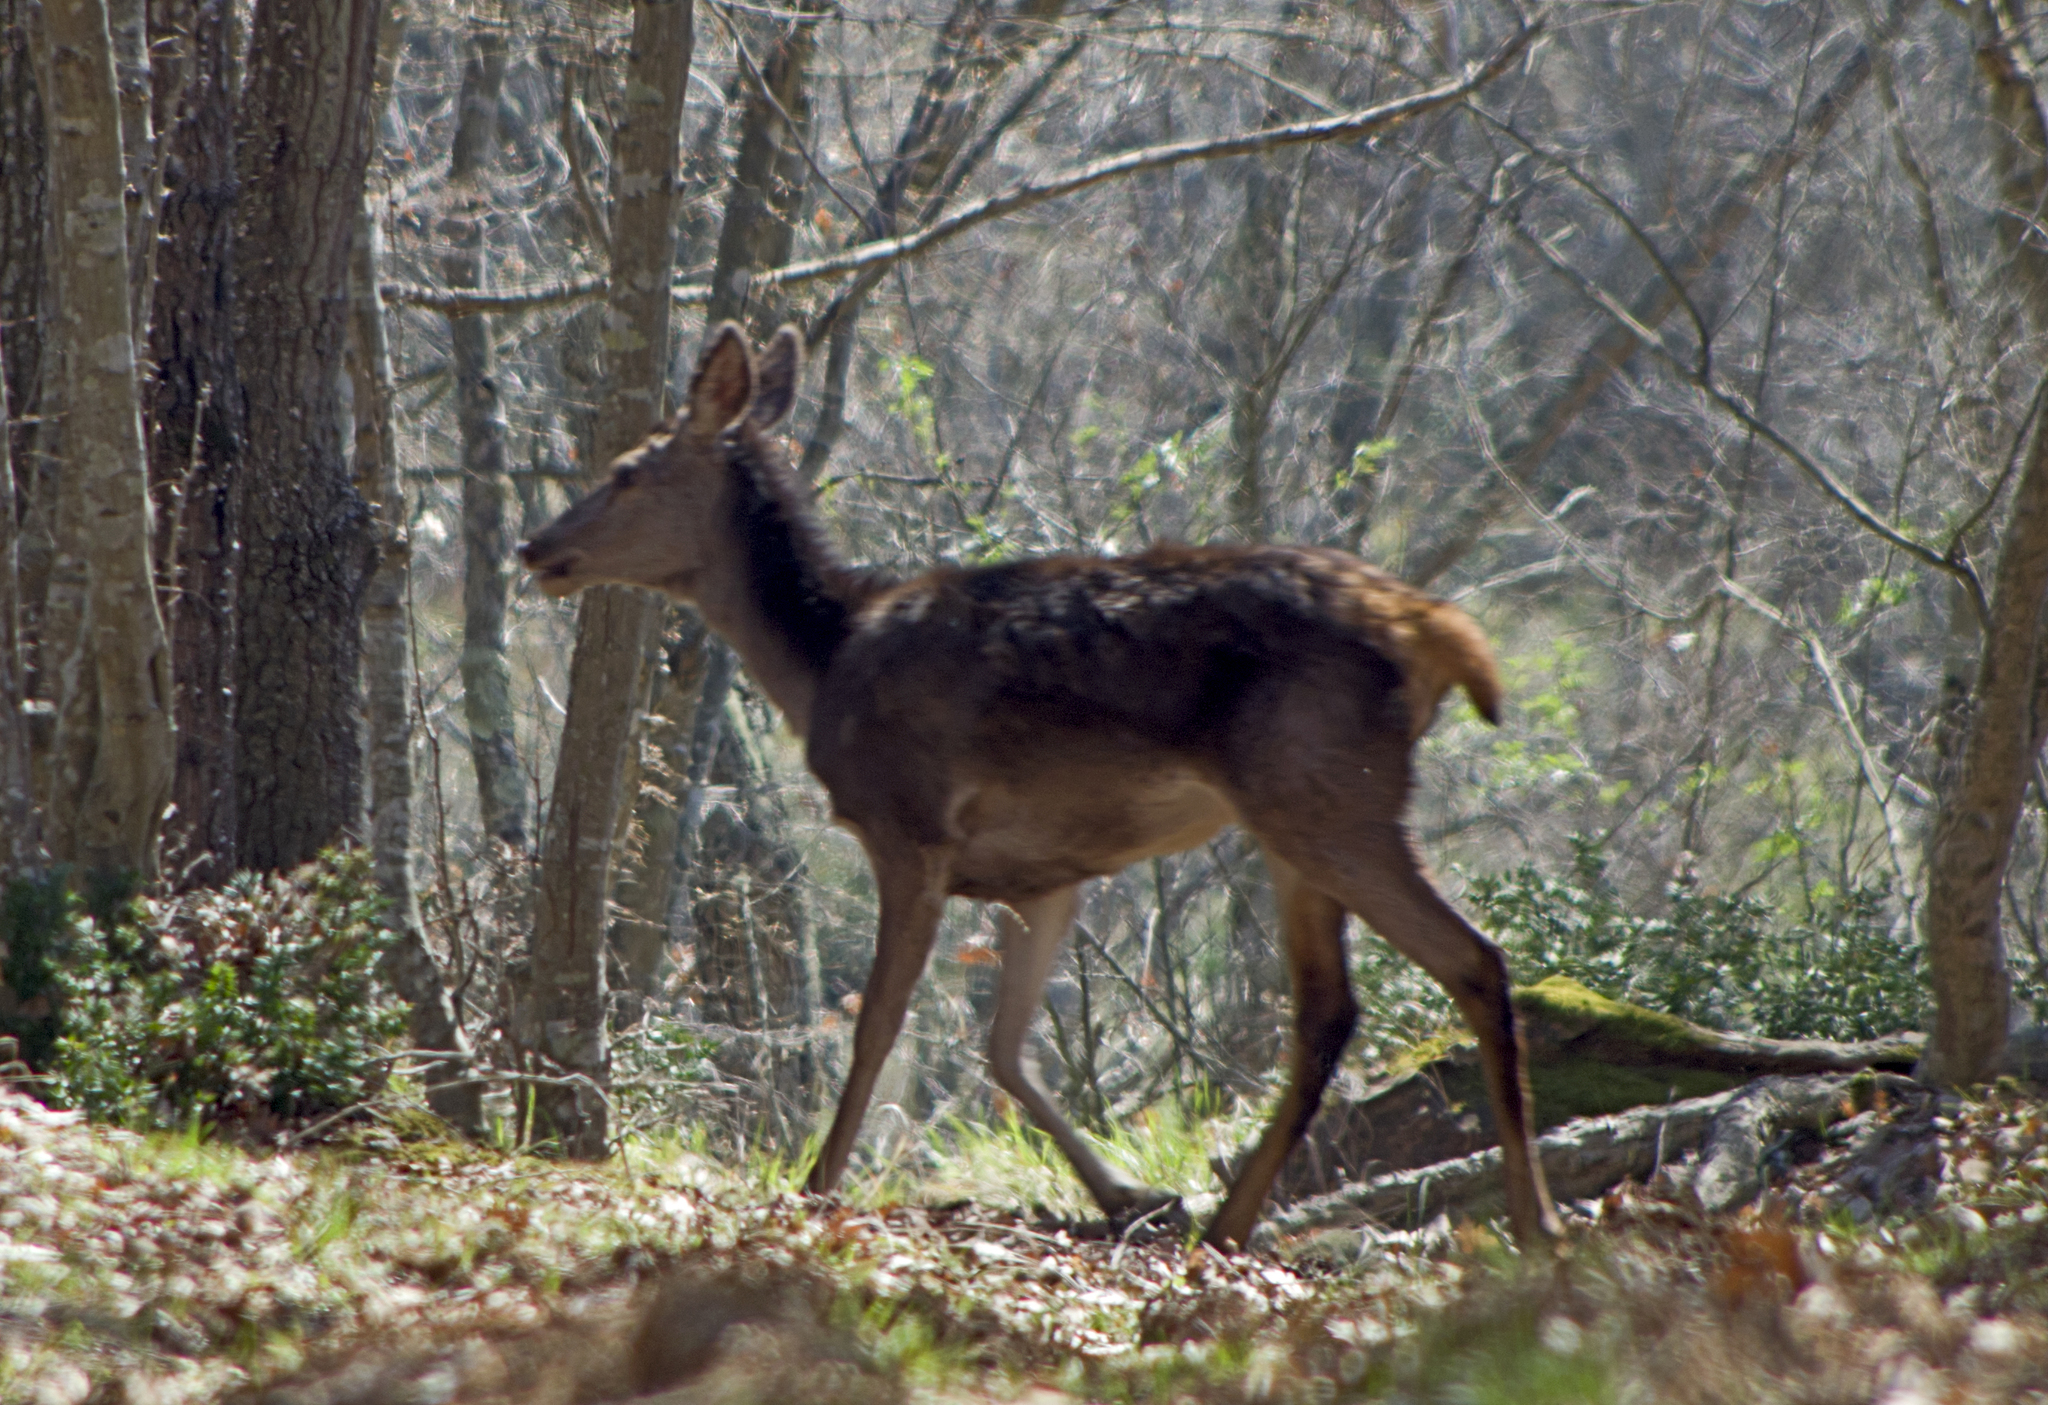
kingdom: Animalia
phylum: Chordata
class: Mammalia
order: Artiodactyla
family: Cervidae
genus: Cervus
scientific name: Cervus elaphus
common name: Red deer
